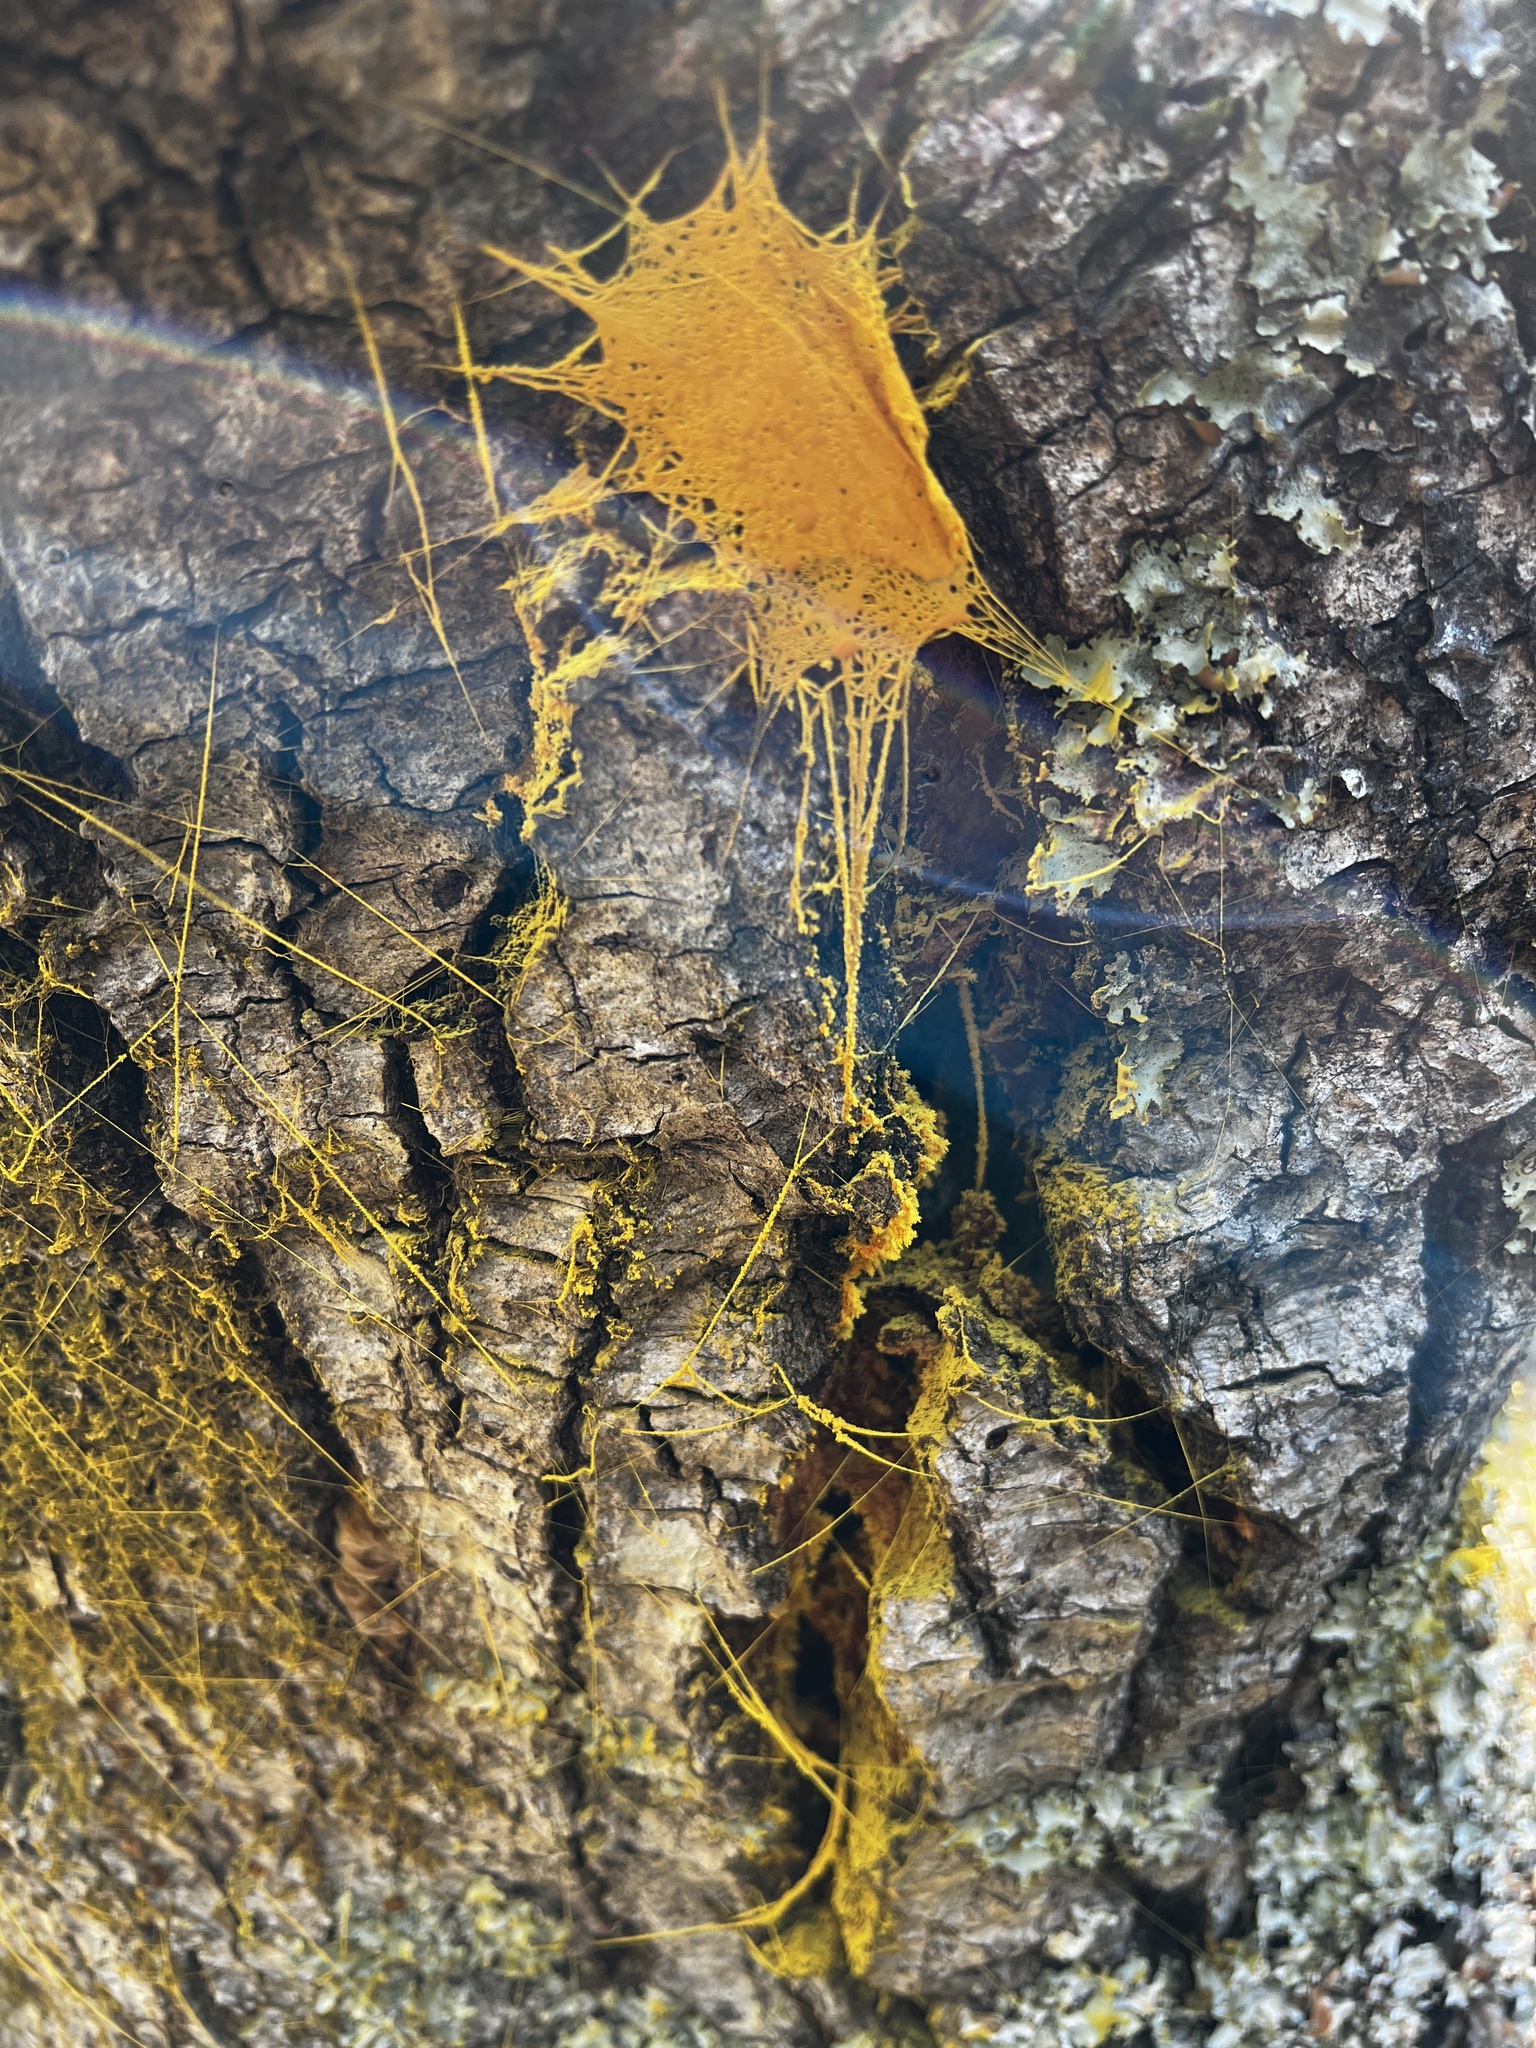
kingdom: Fungi
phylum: Basidiomycota
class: Agaricomycetes
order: Hymenochaetales
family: Hymenochaetaceae
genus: Xanthoporia
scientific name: Xanthoporia andersonii
